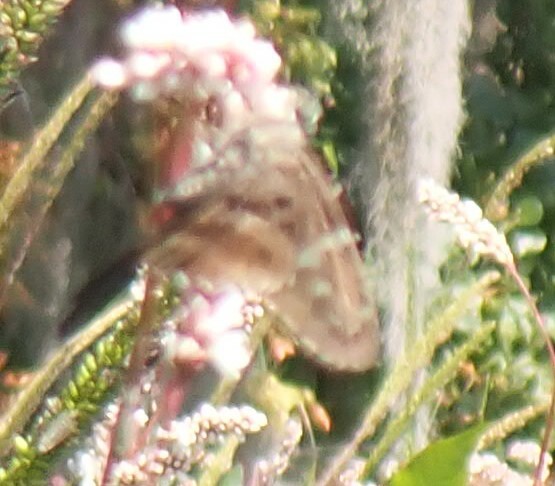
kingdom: Animalia
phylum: Arthropoda
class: Insecta
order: Lepidoptera
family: Hesperiidae
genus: Urbanus
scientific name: Urbanus proteus
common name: Long-tailed skipper
